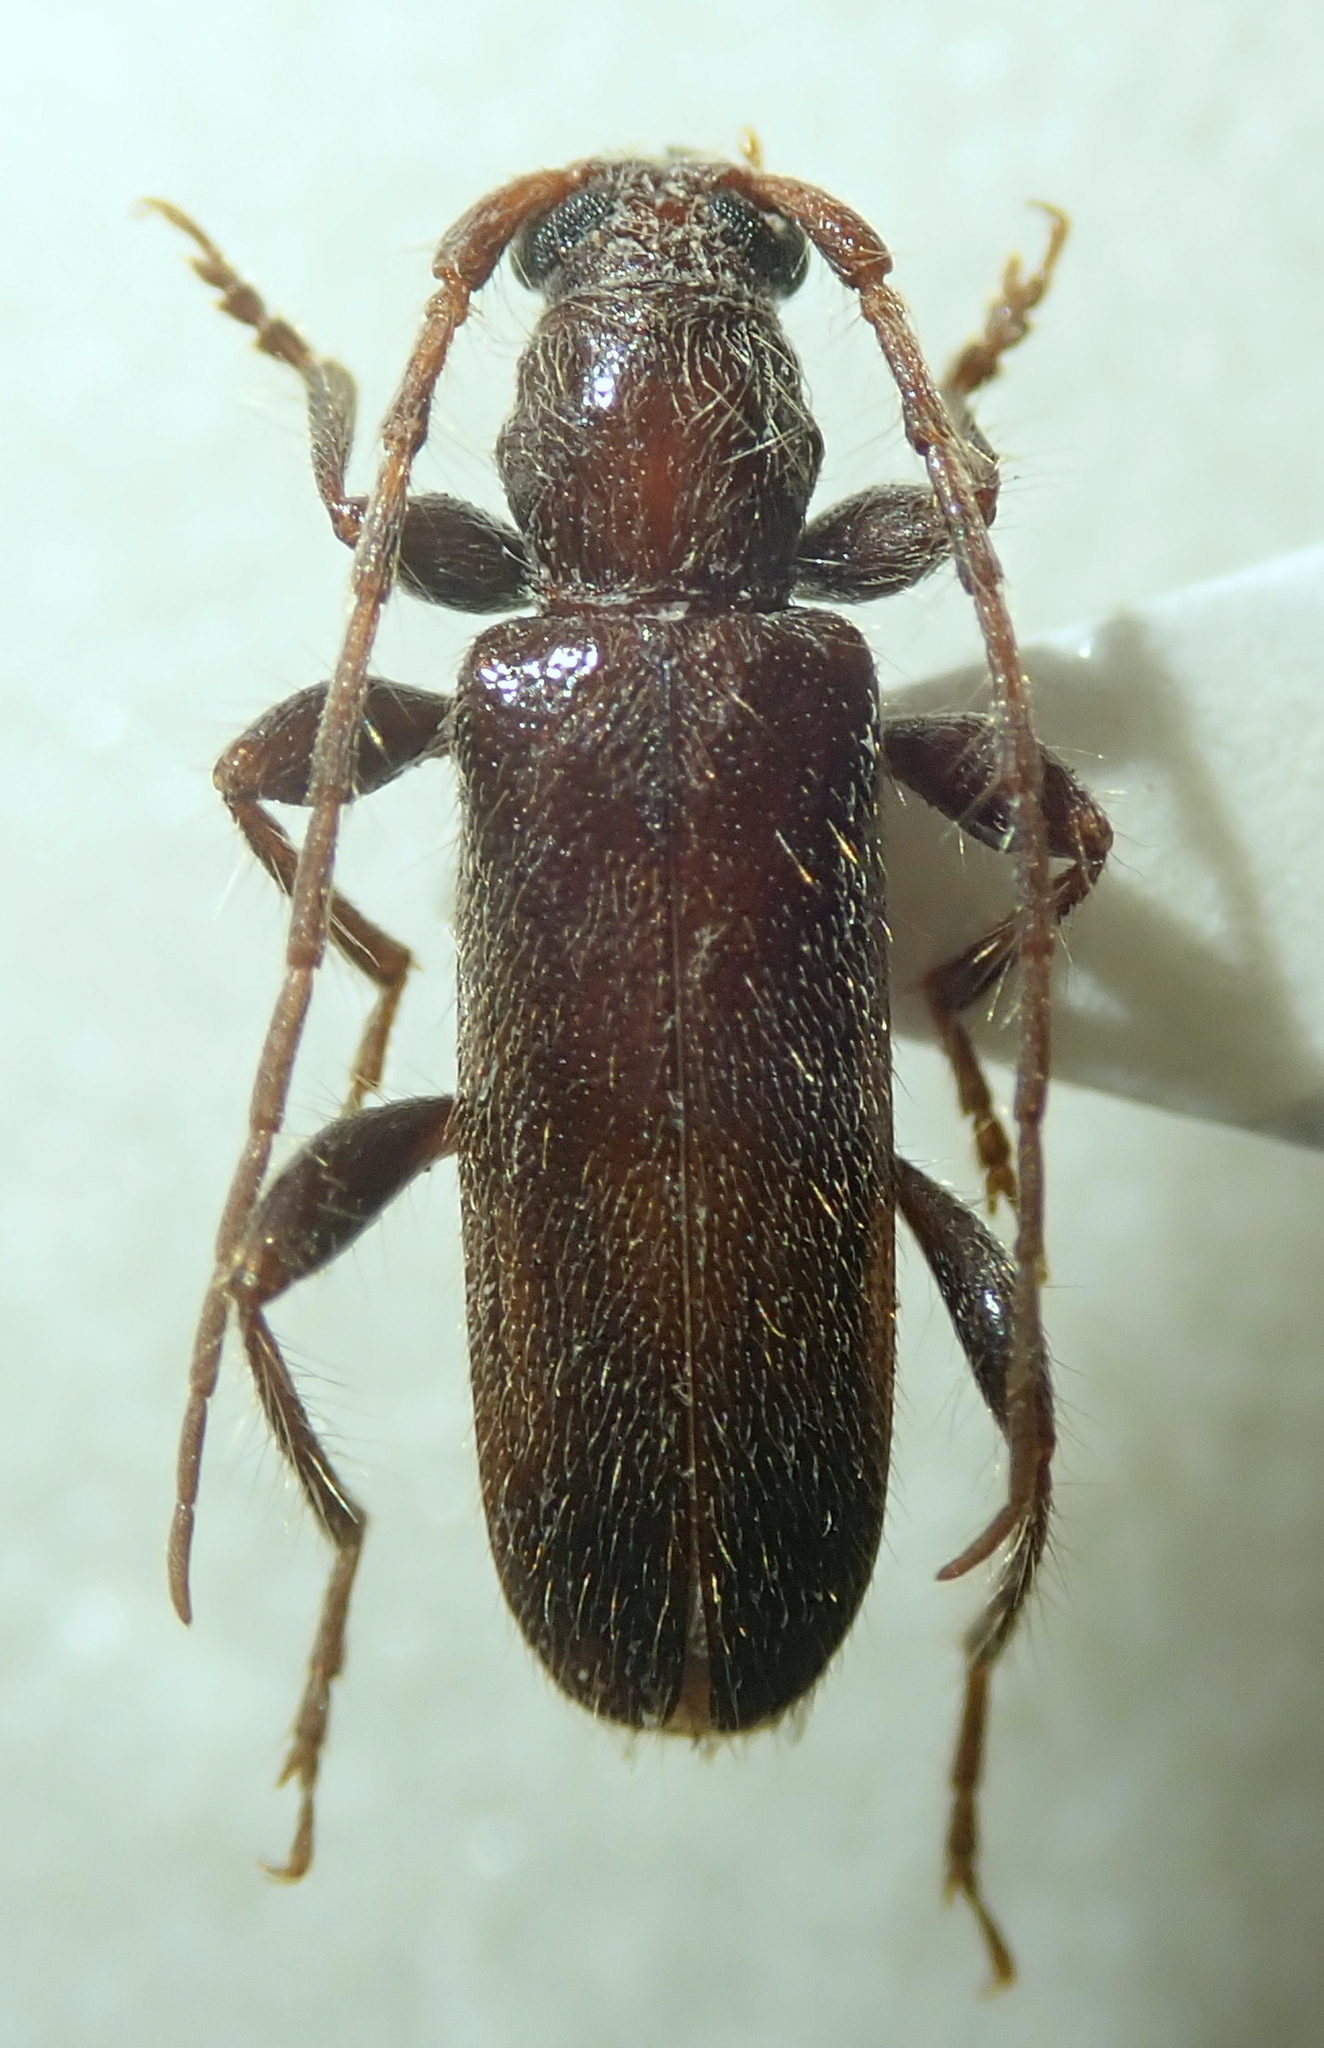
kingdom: Animalia
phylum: Arthropoda
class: Insecta
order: Coleoptera
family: Cerambycidae
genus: Lucasianus
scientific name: Lucasianus levaillantii
